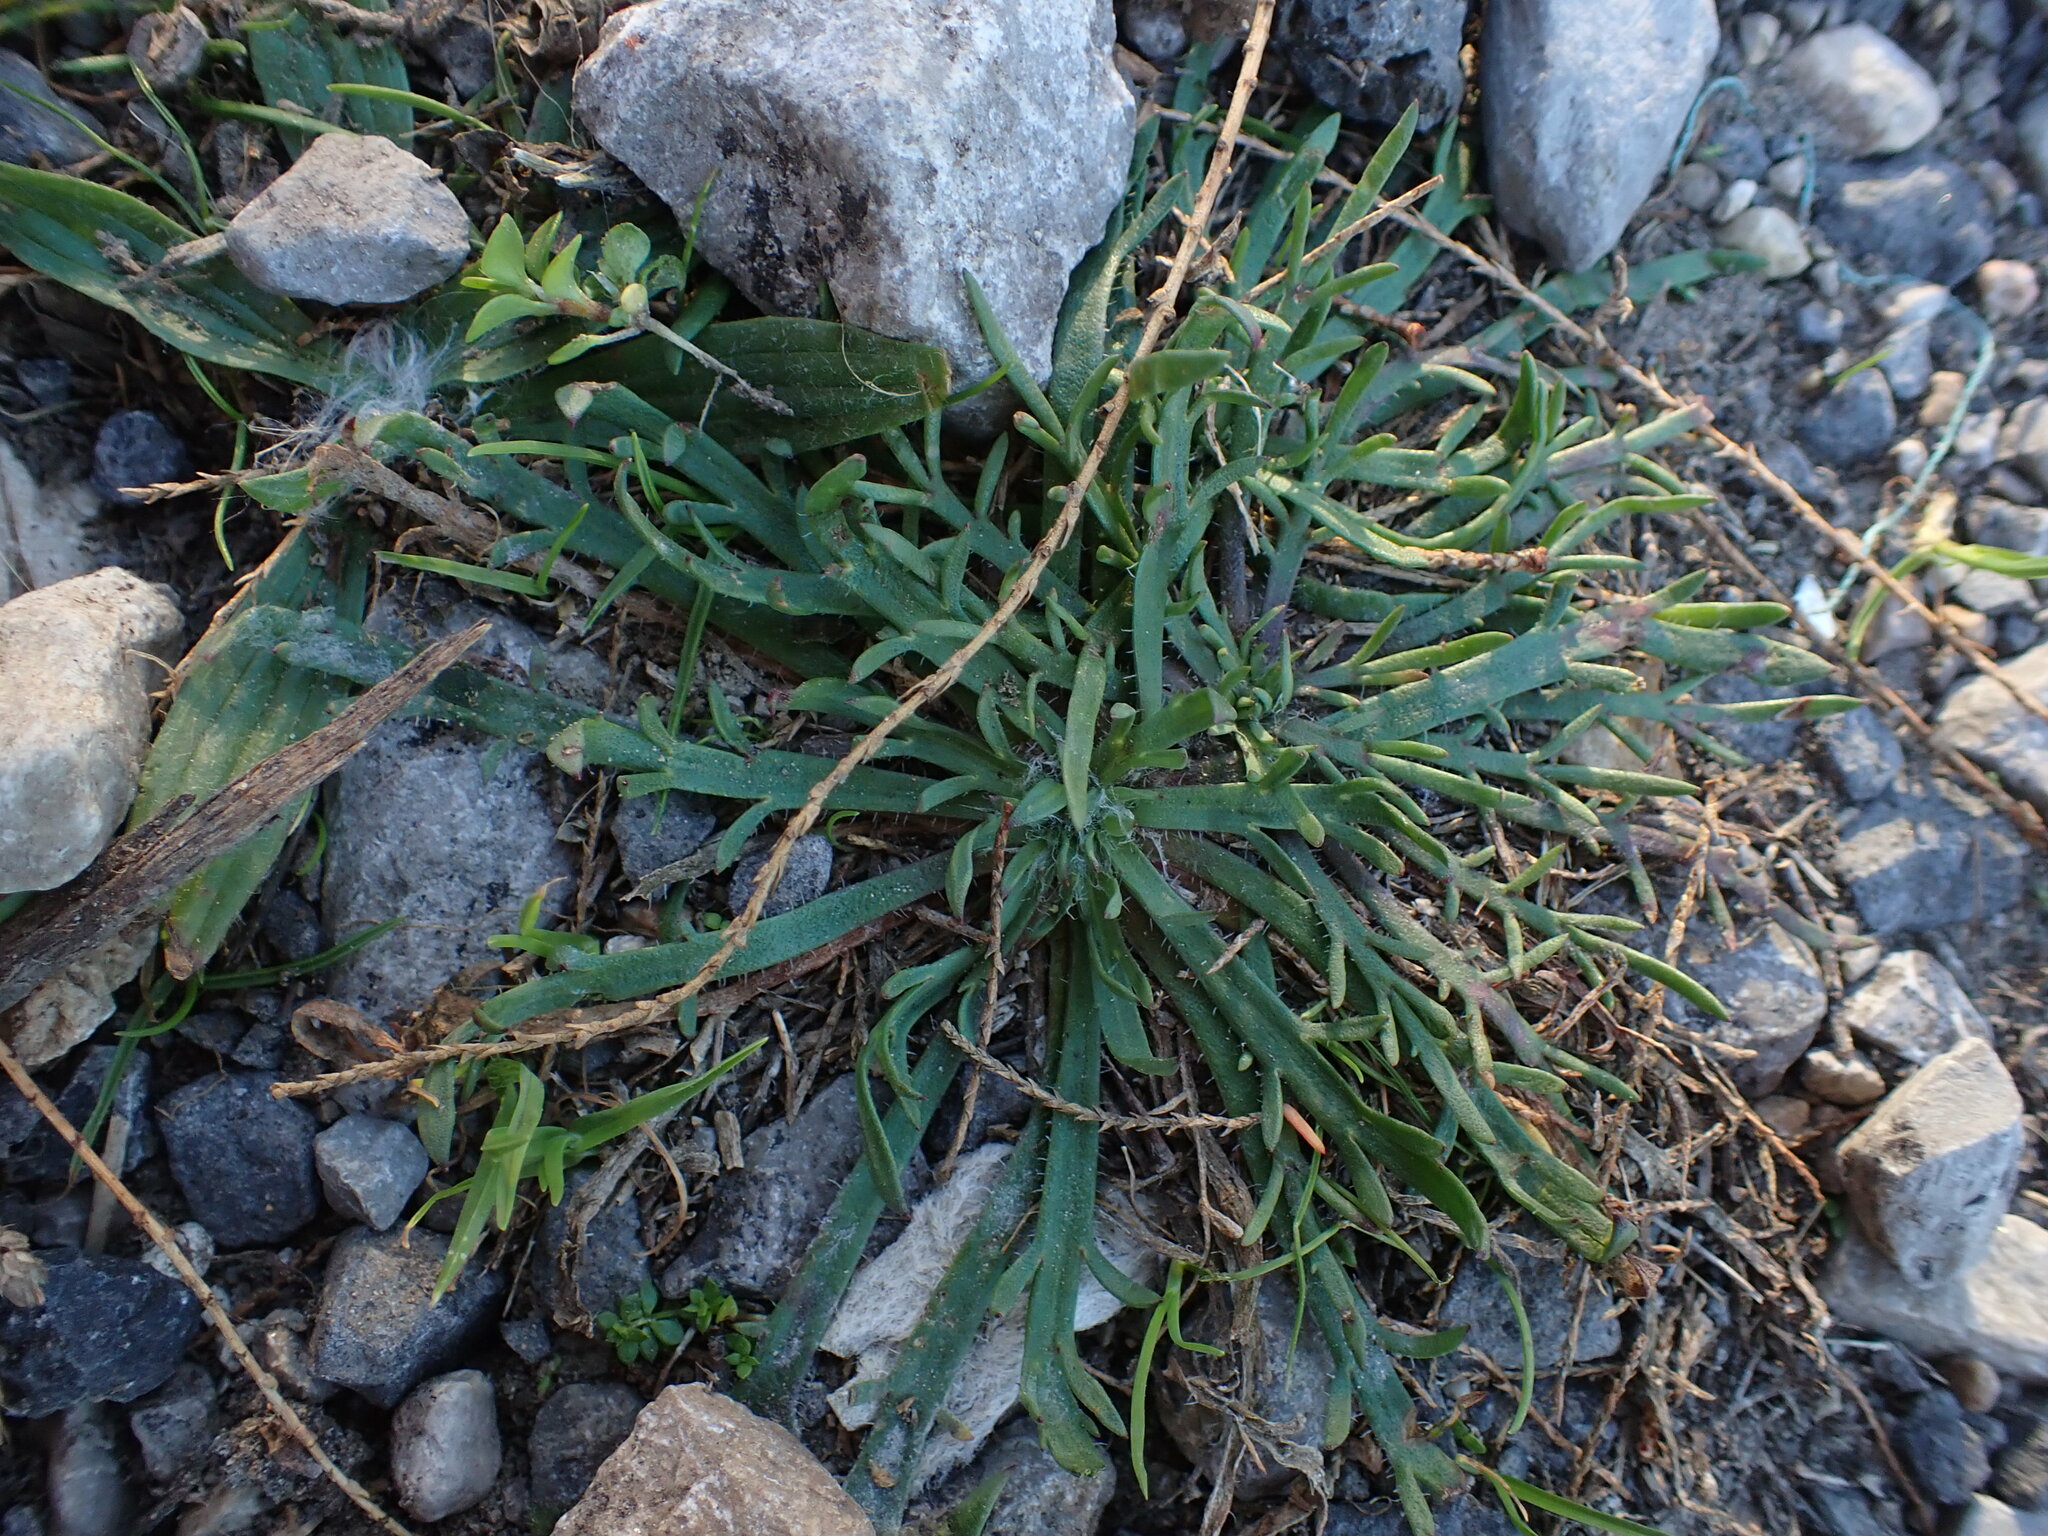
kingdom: Plantae
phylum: Tracheophyta
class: Magnoliopsida
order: Lamiales
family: Plantaginaceae
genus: Plantago
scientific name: Plantago coronopus
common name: Buck's-horn plantain
